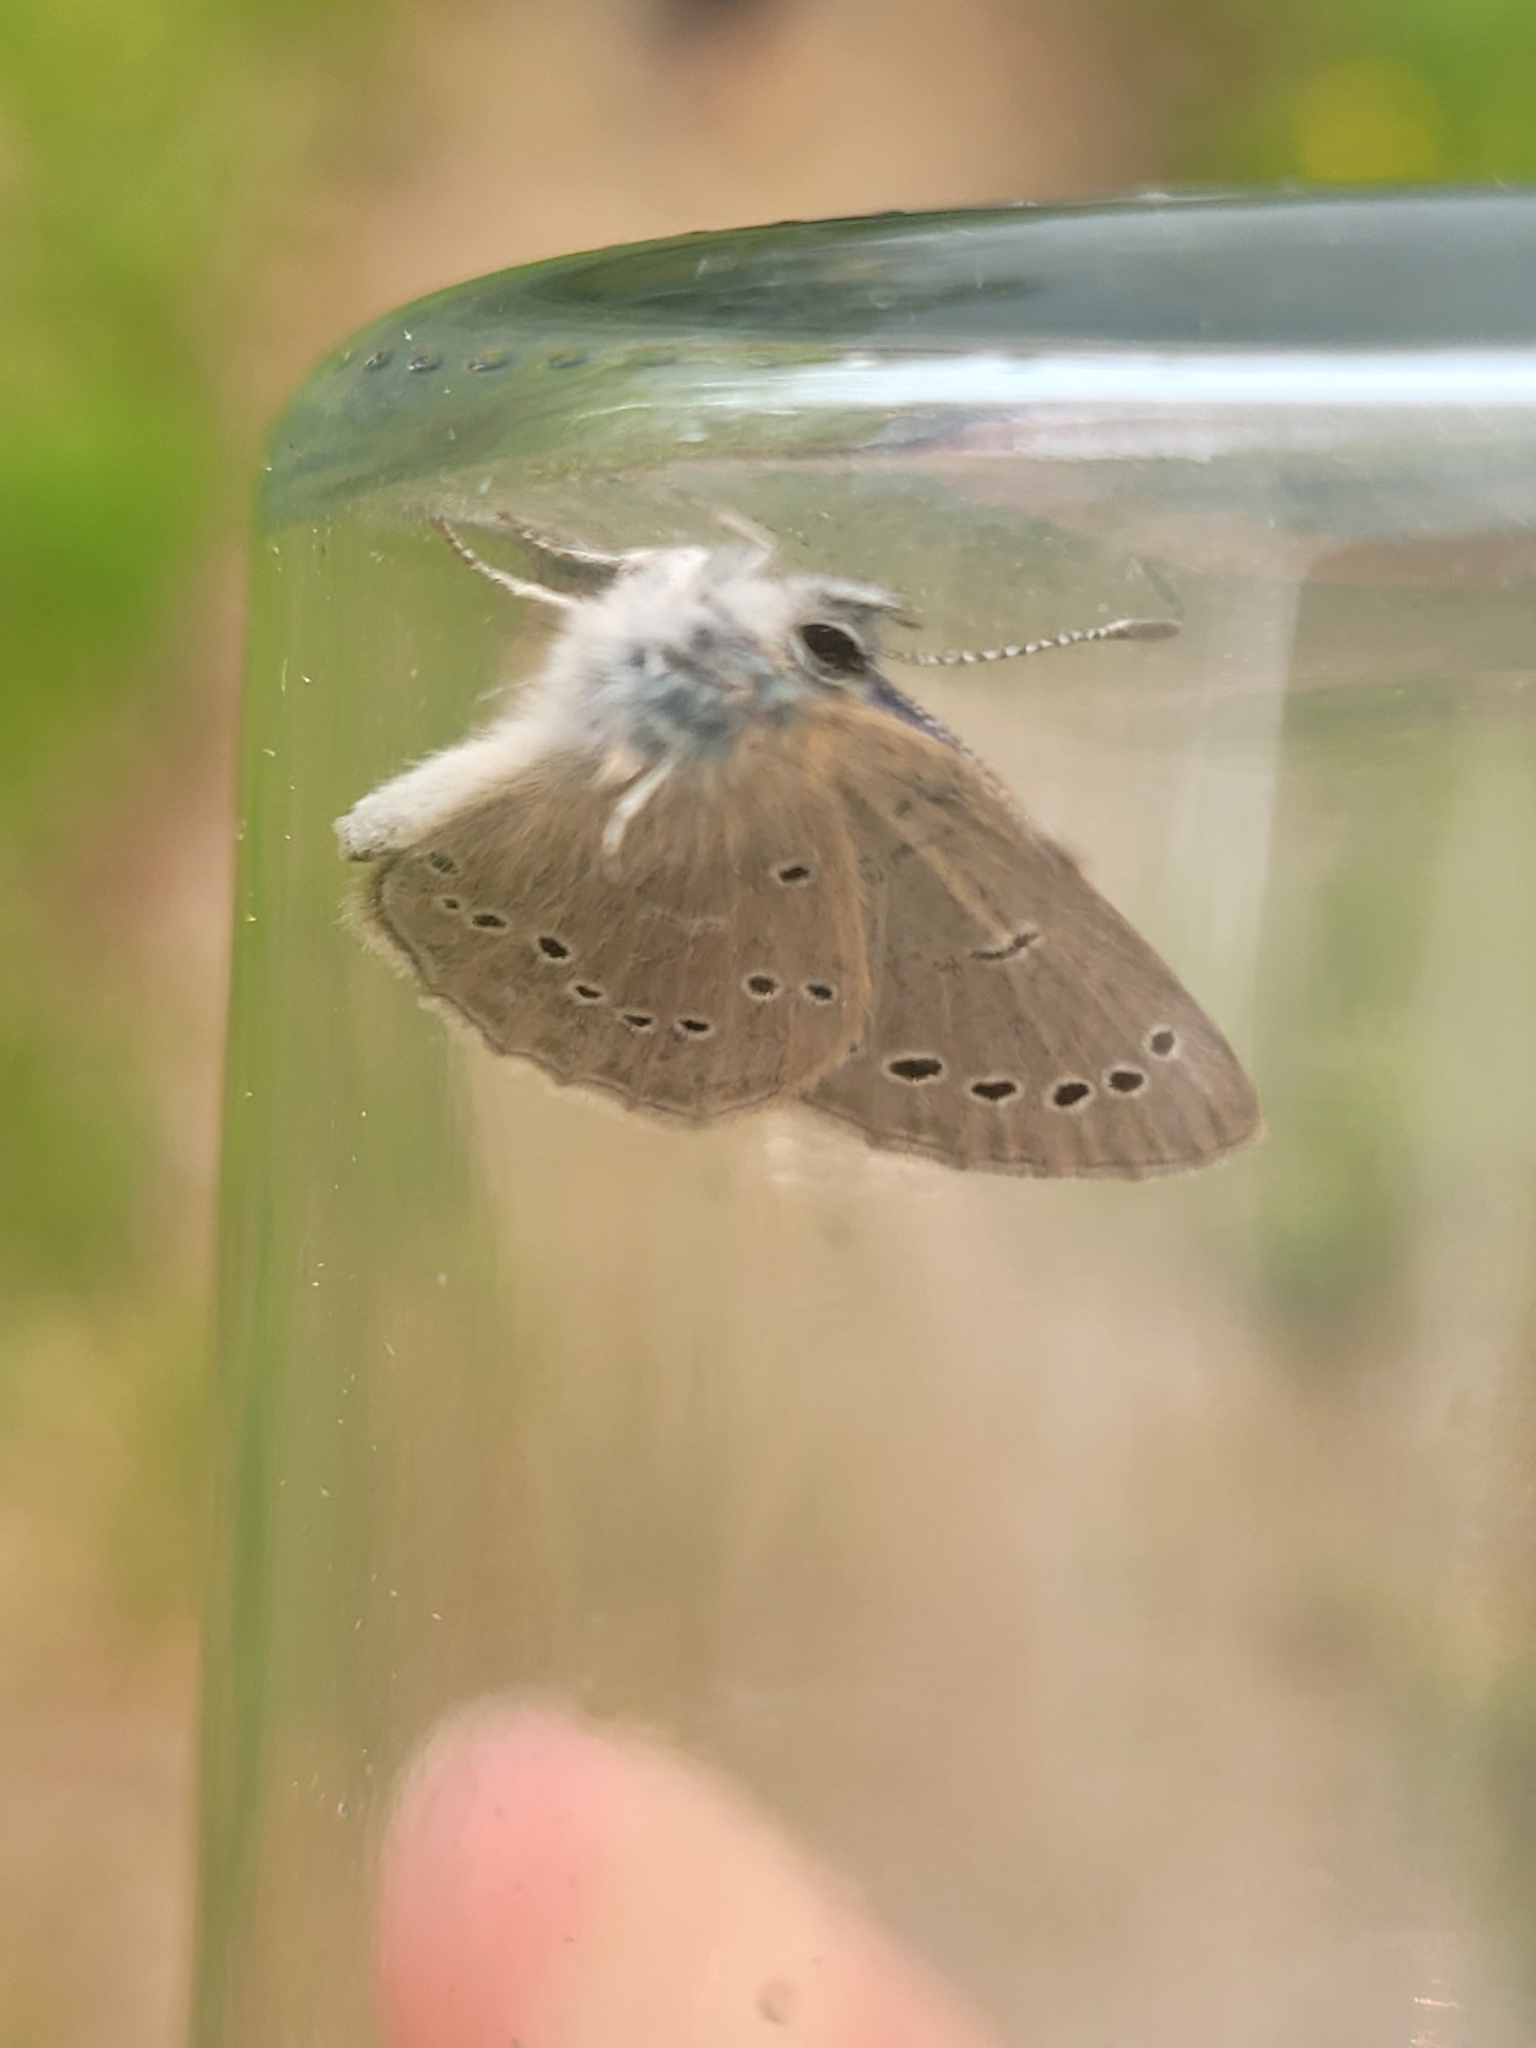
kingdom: Animalia
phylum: Arthropoda
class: Insecta
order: Lepidoptera
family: Lycaenidae
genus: Glaucopsyche
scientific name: Glaucopsyche lygdamus
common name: Silvery blue
